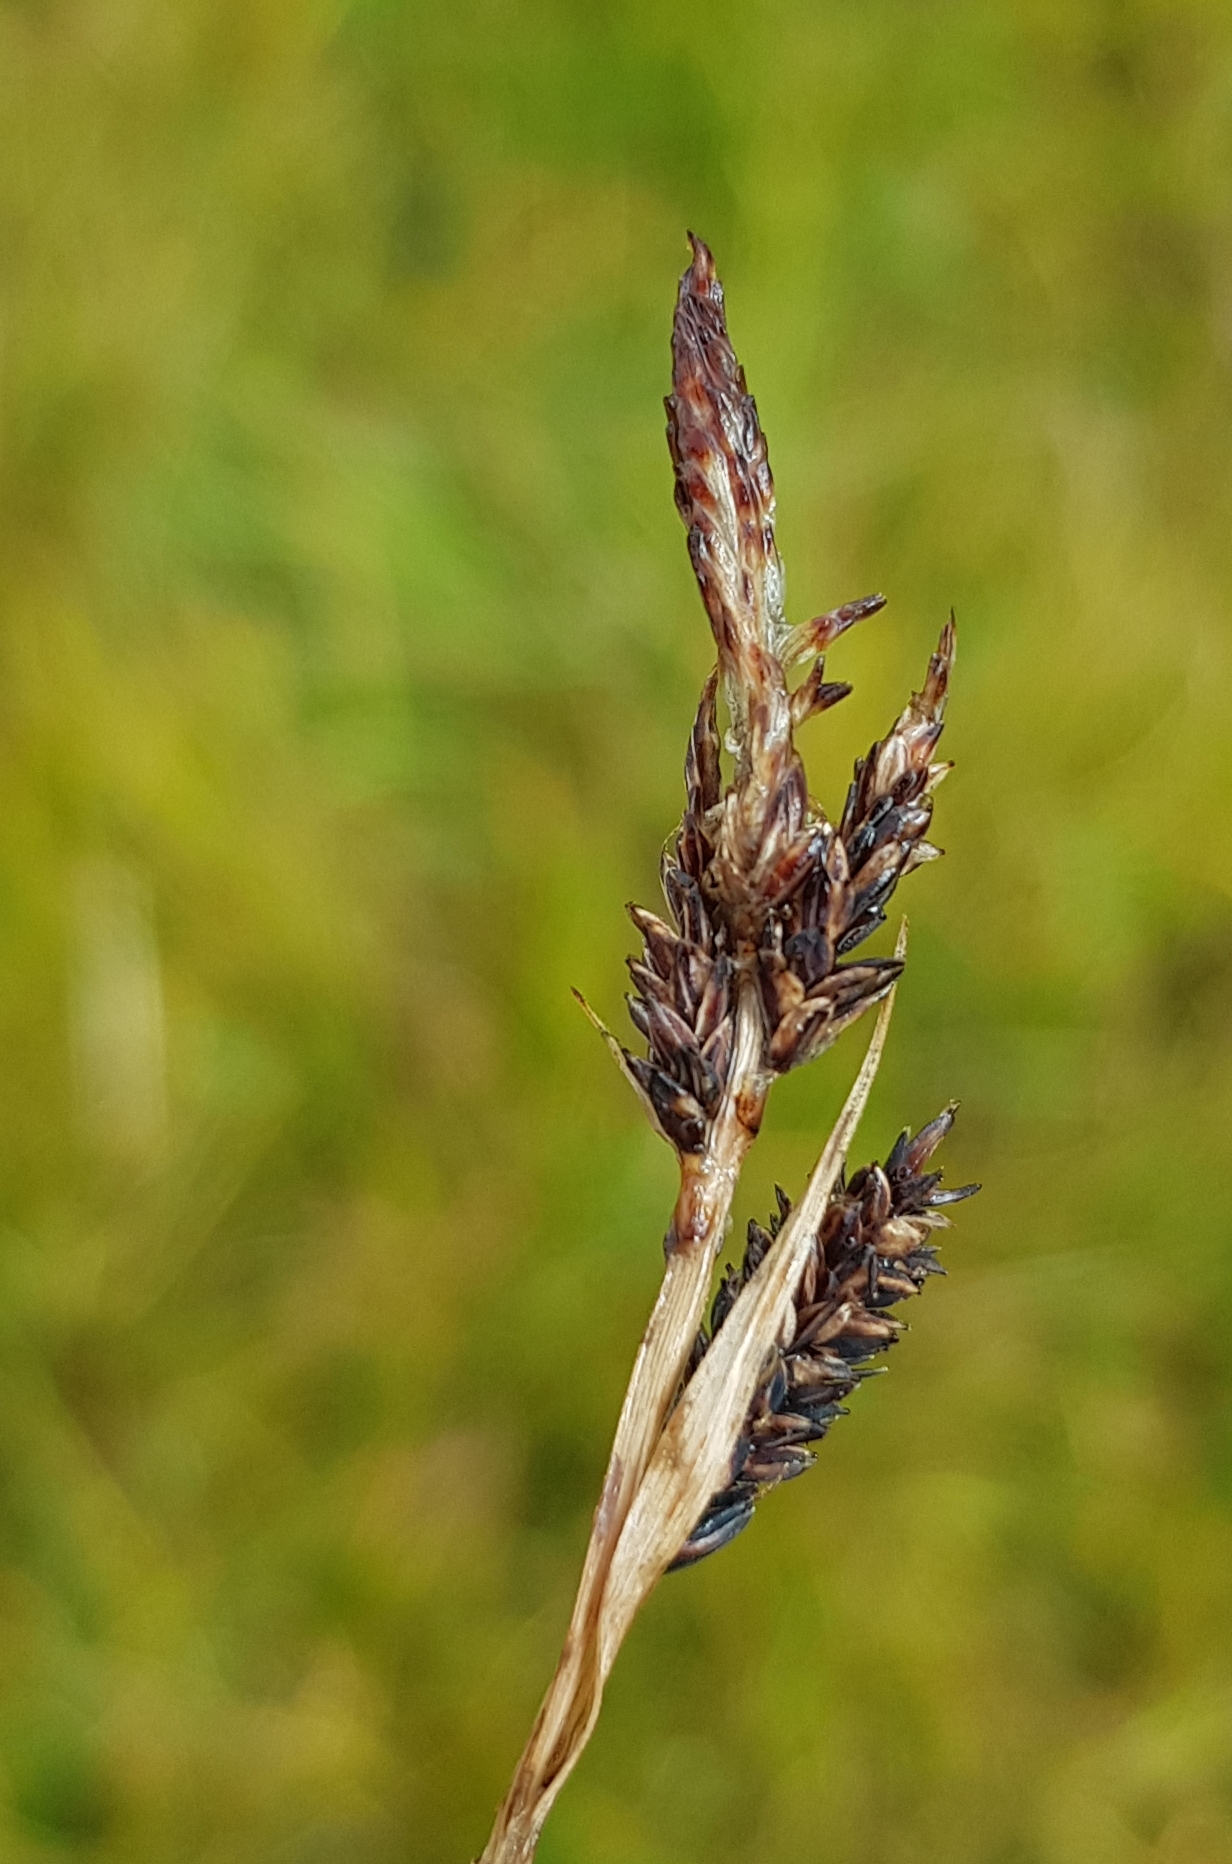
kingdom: Plantae
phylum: Tracheophyta
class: Liliopsida
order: Poales
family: Cyperaceae
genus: Carex
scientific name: Carex atherodes
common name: Wheat sedge
